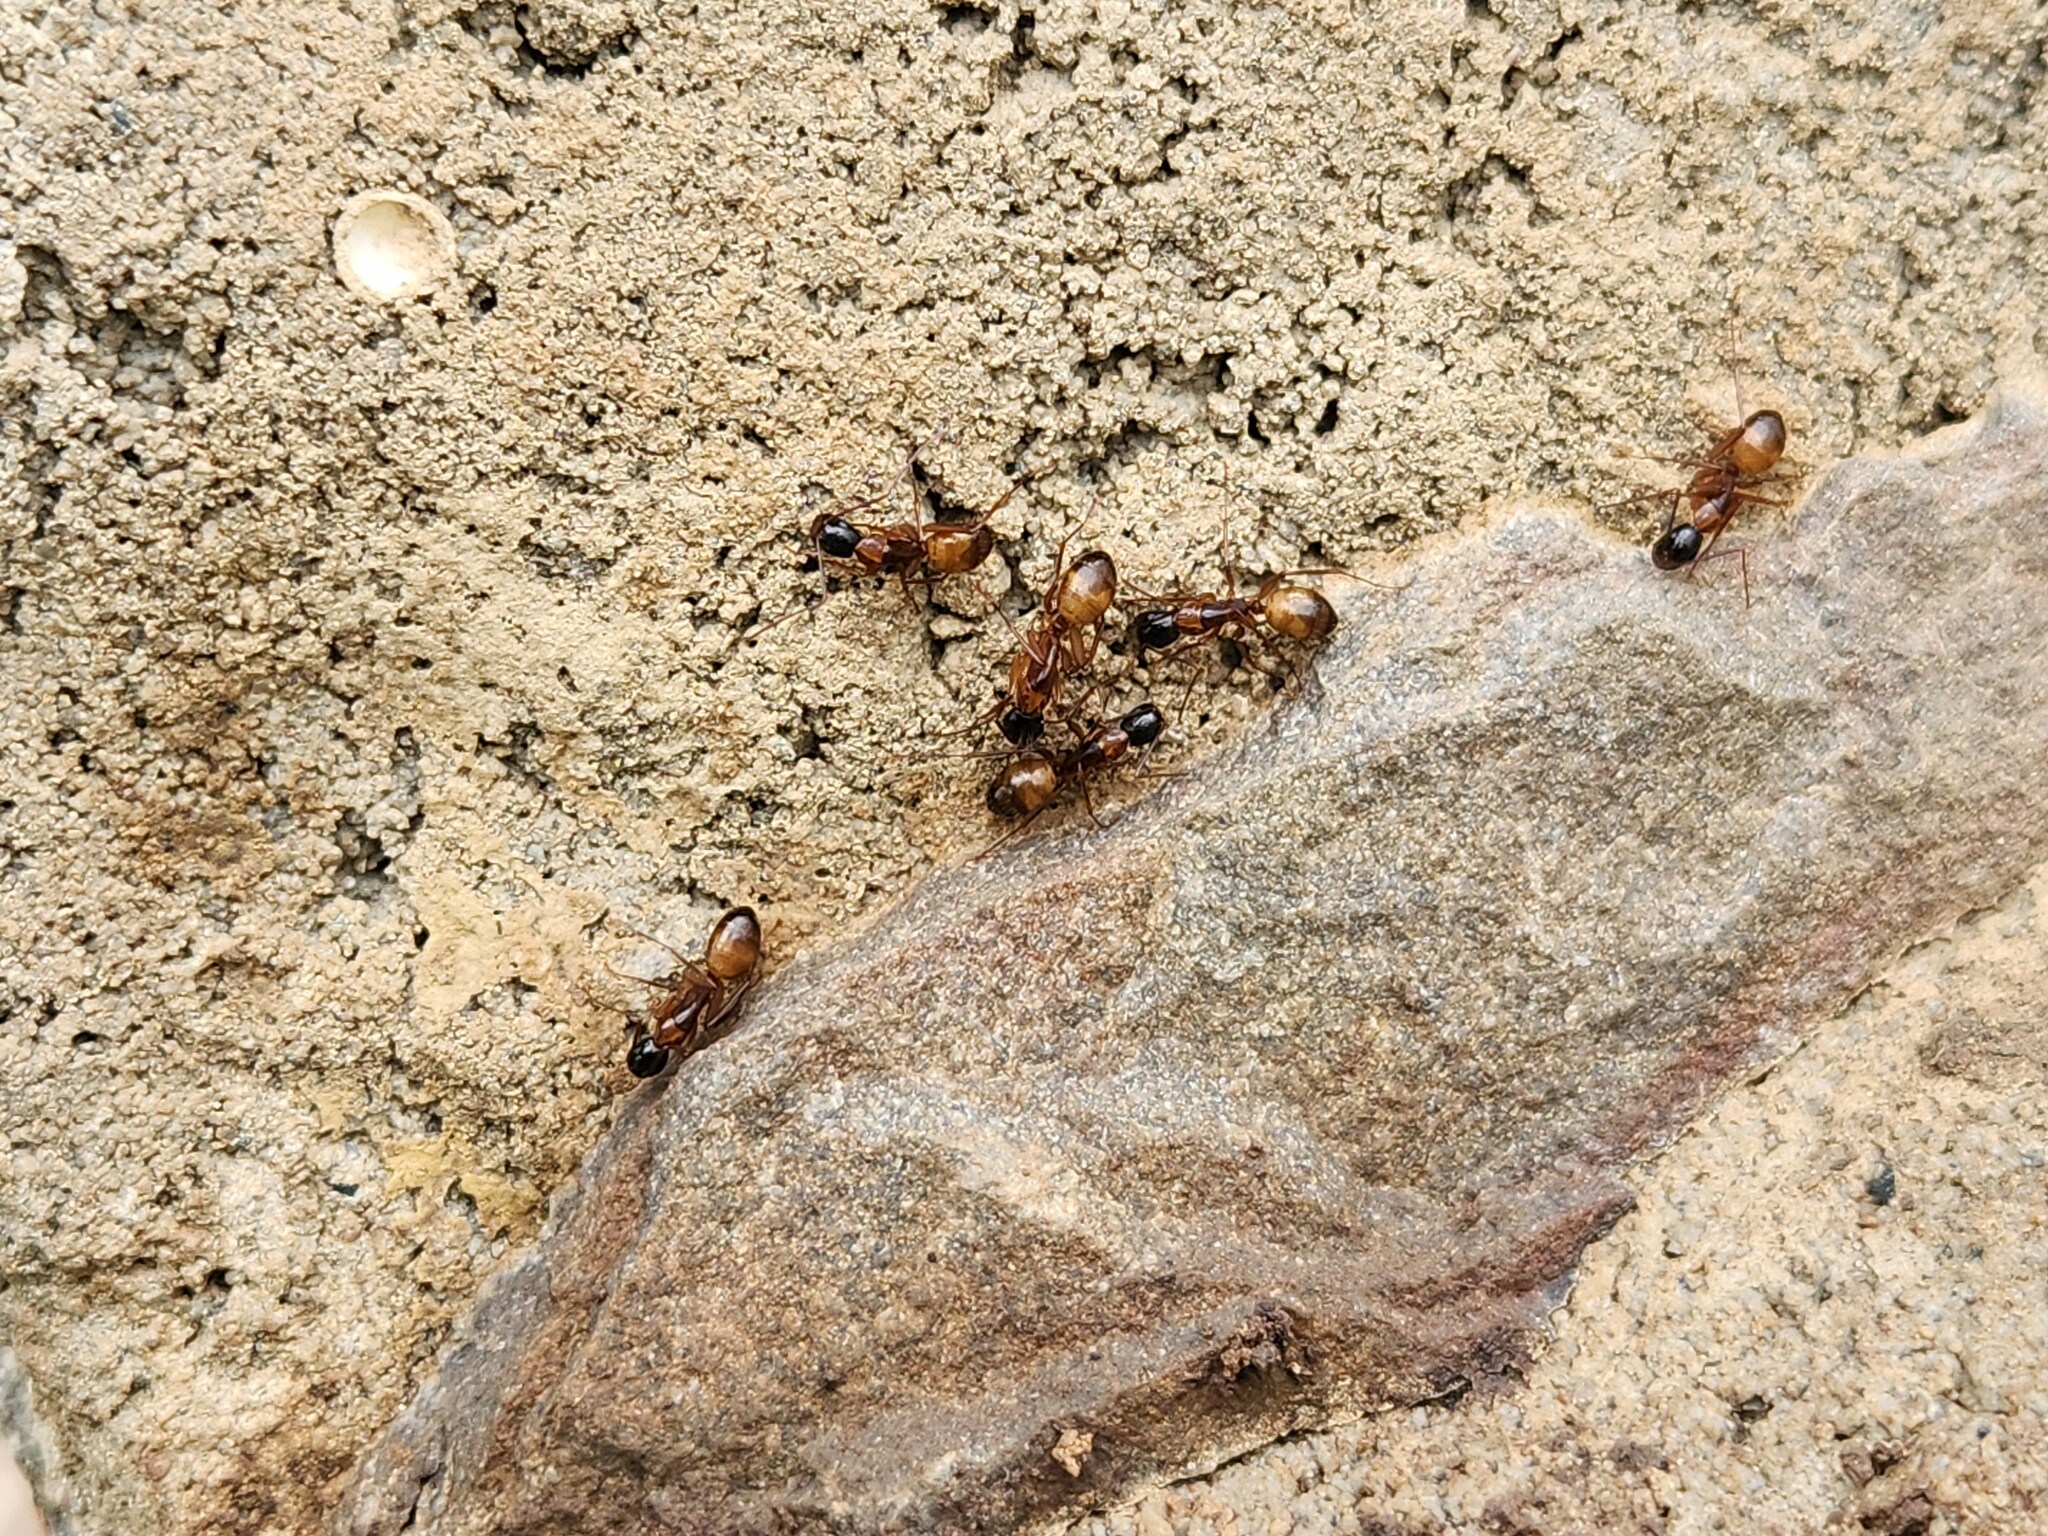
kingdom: Animalia
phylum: Arthropoda
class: Insecta
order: Hymenoptera
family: Formicidae
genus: Camponotus
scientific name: Camponotus americanus
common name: American carpenter ant
